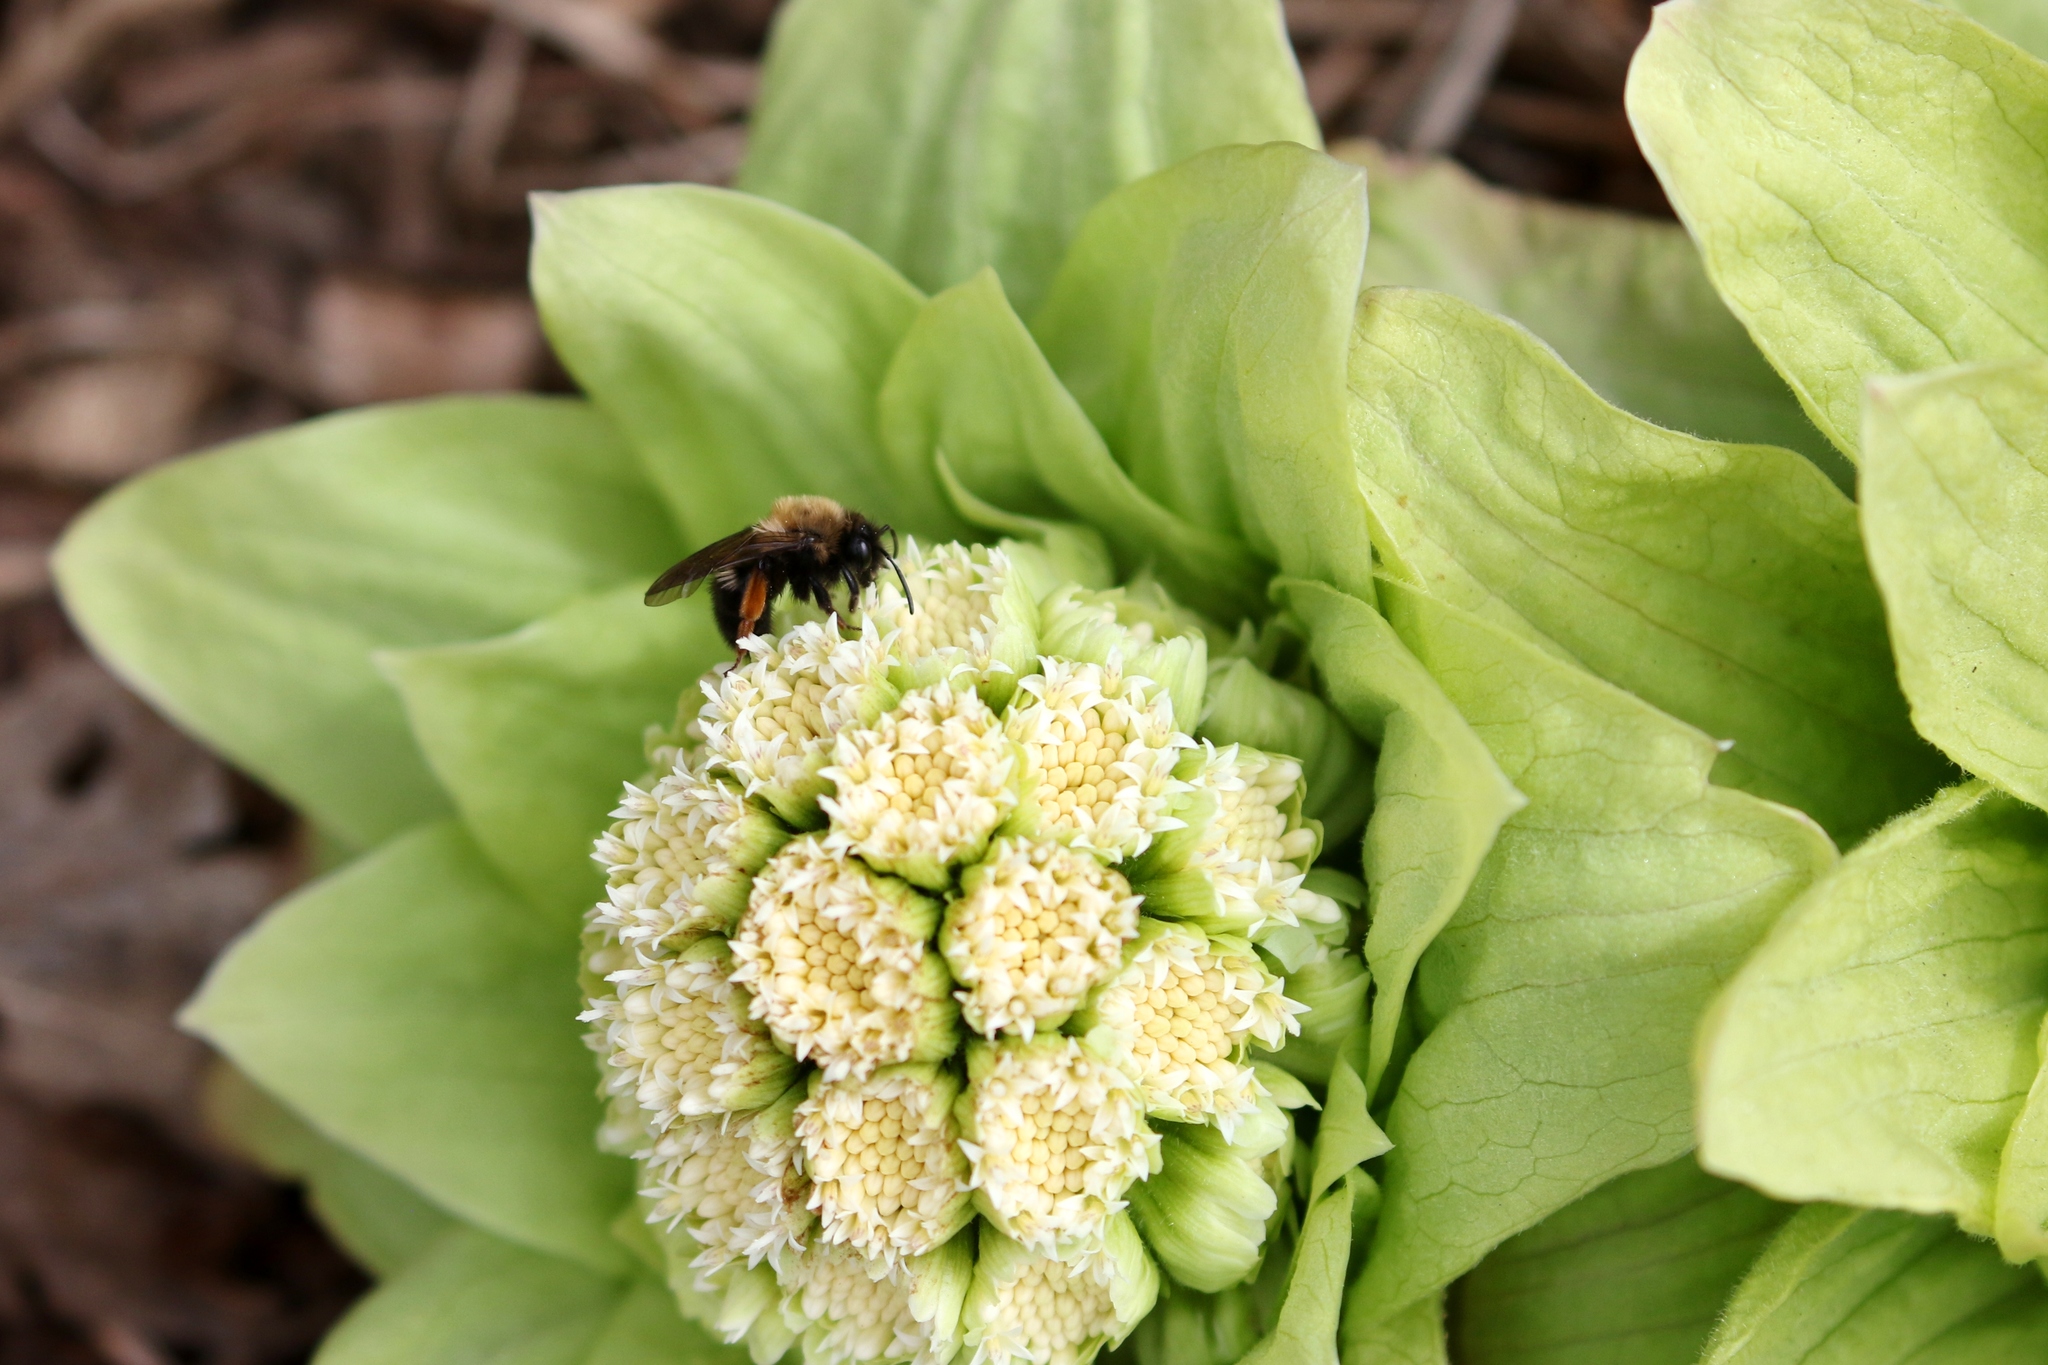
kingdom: Animalia
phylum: Arthropoda
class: Insecta
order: Hymenoptera
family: Andrenidae
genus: Andrena
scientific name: Andrena clarkella
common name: Clarke's mining bee
